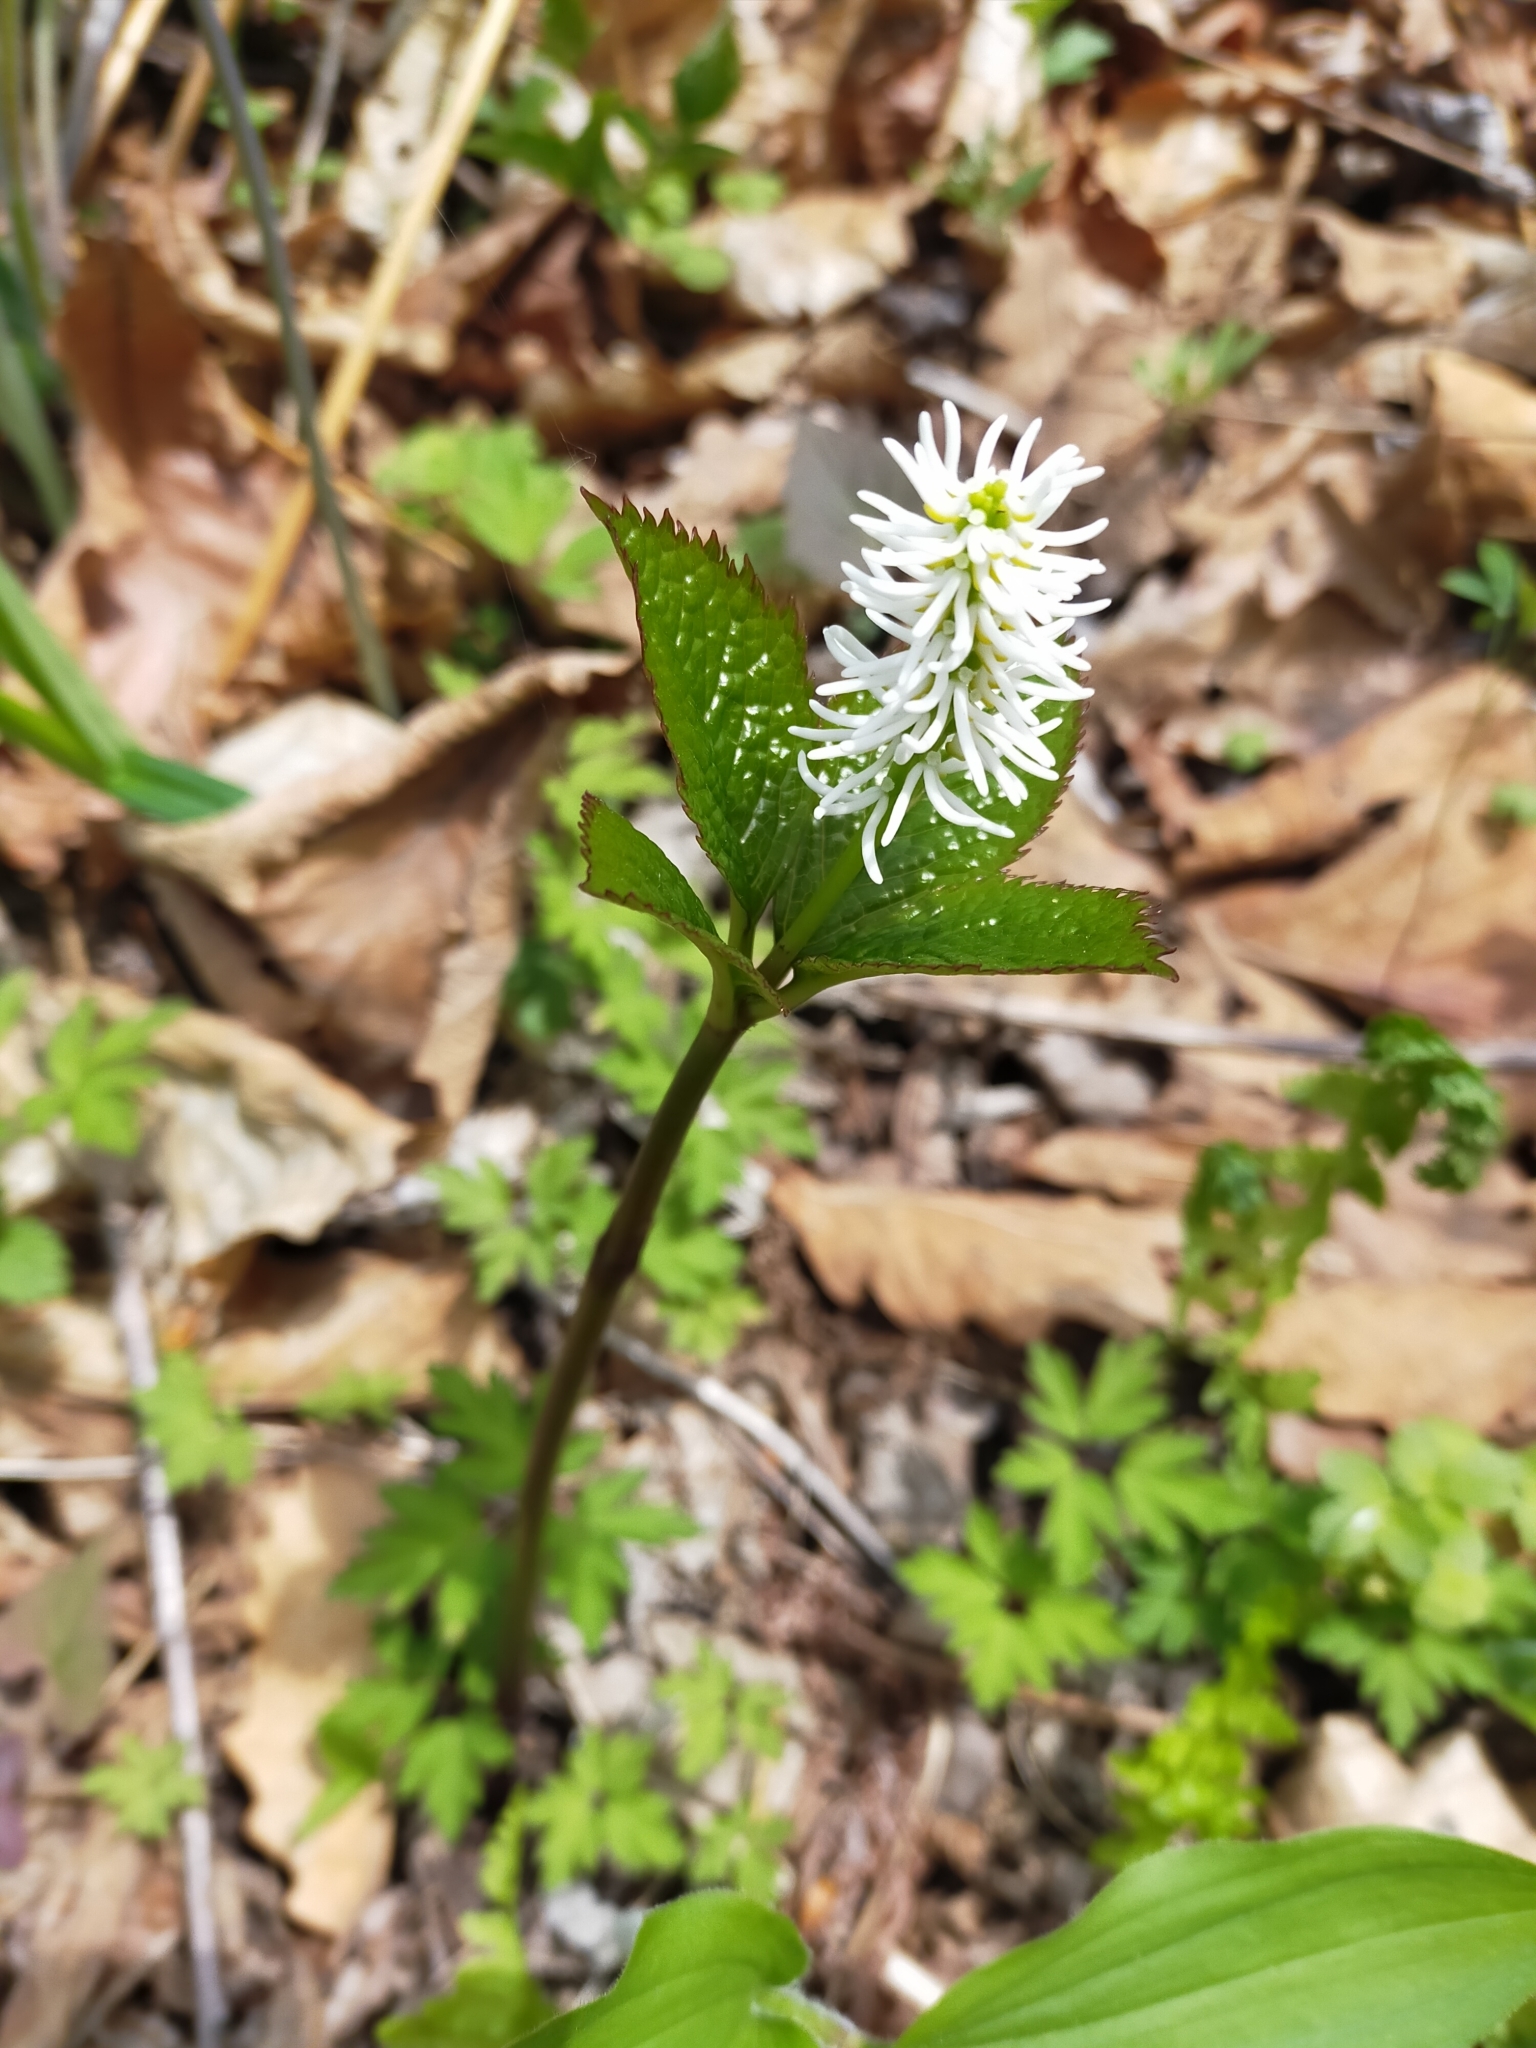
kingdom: Plantae
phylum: Tracheophyta
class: Magnoliopsida
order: Chloranthales
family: Chloranthaceae
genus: Chloranthus
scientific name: Chloranthus quadrifolius
